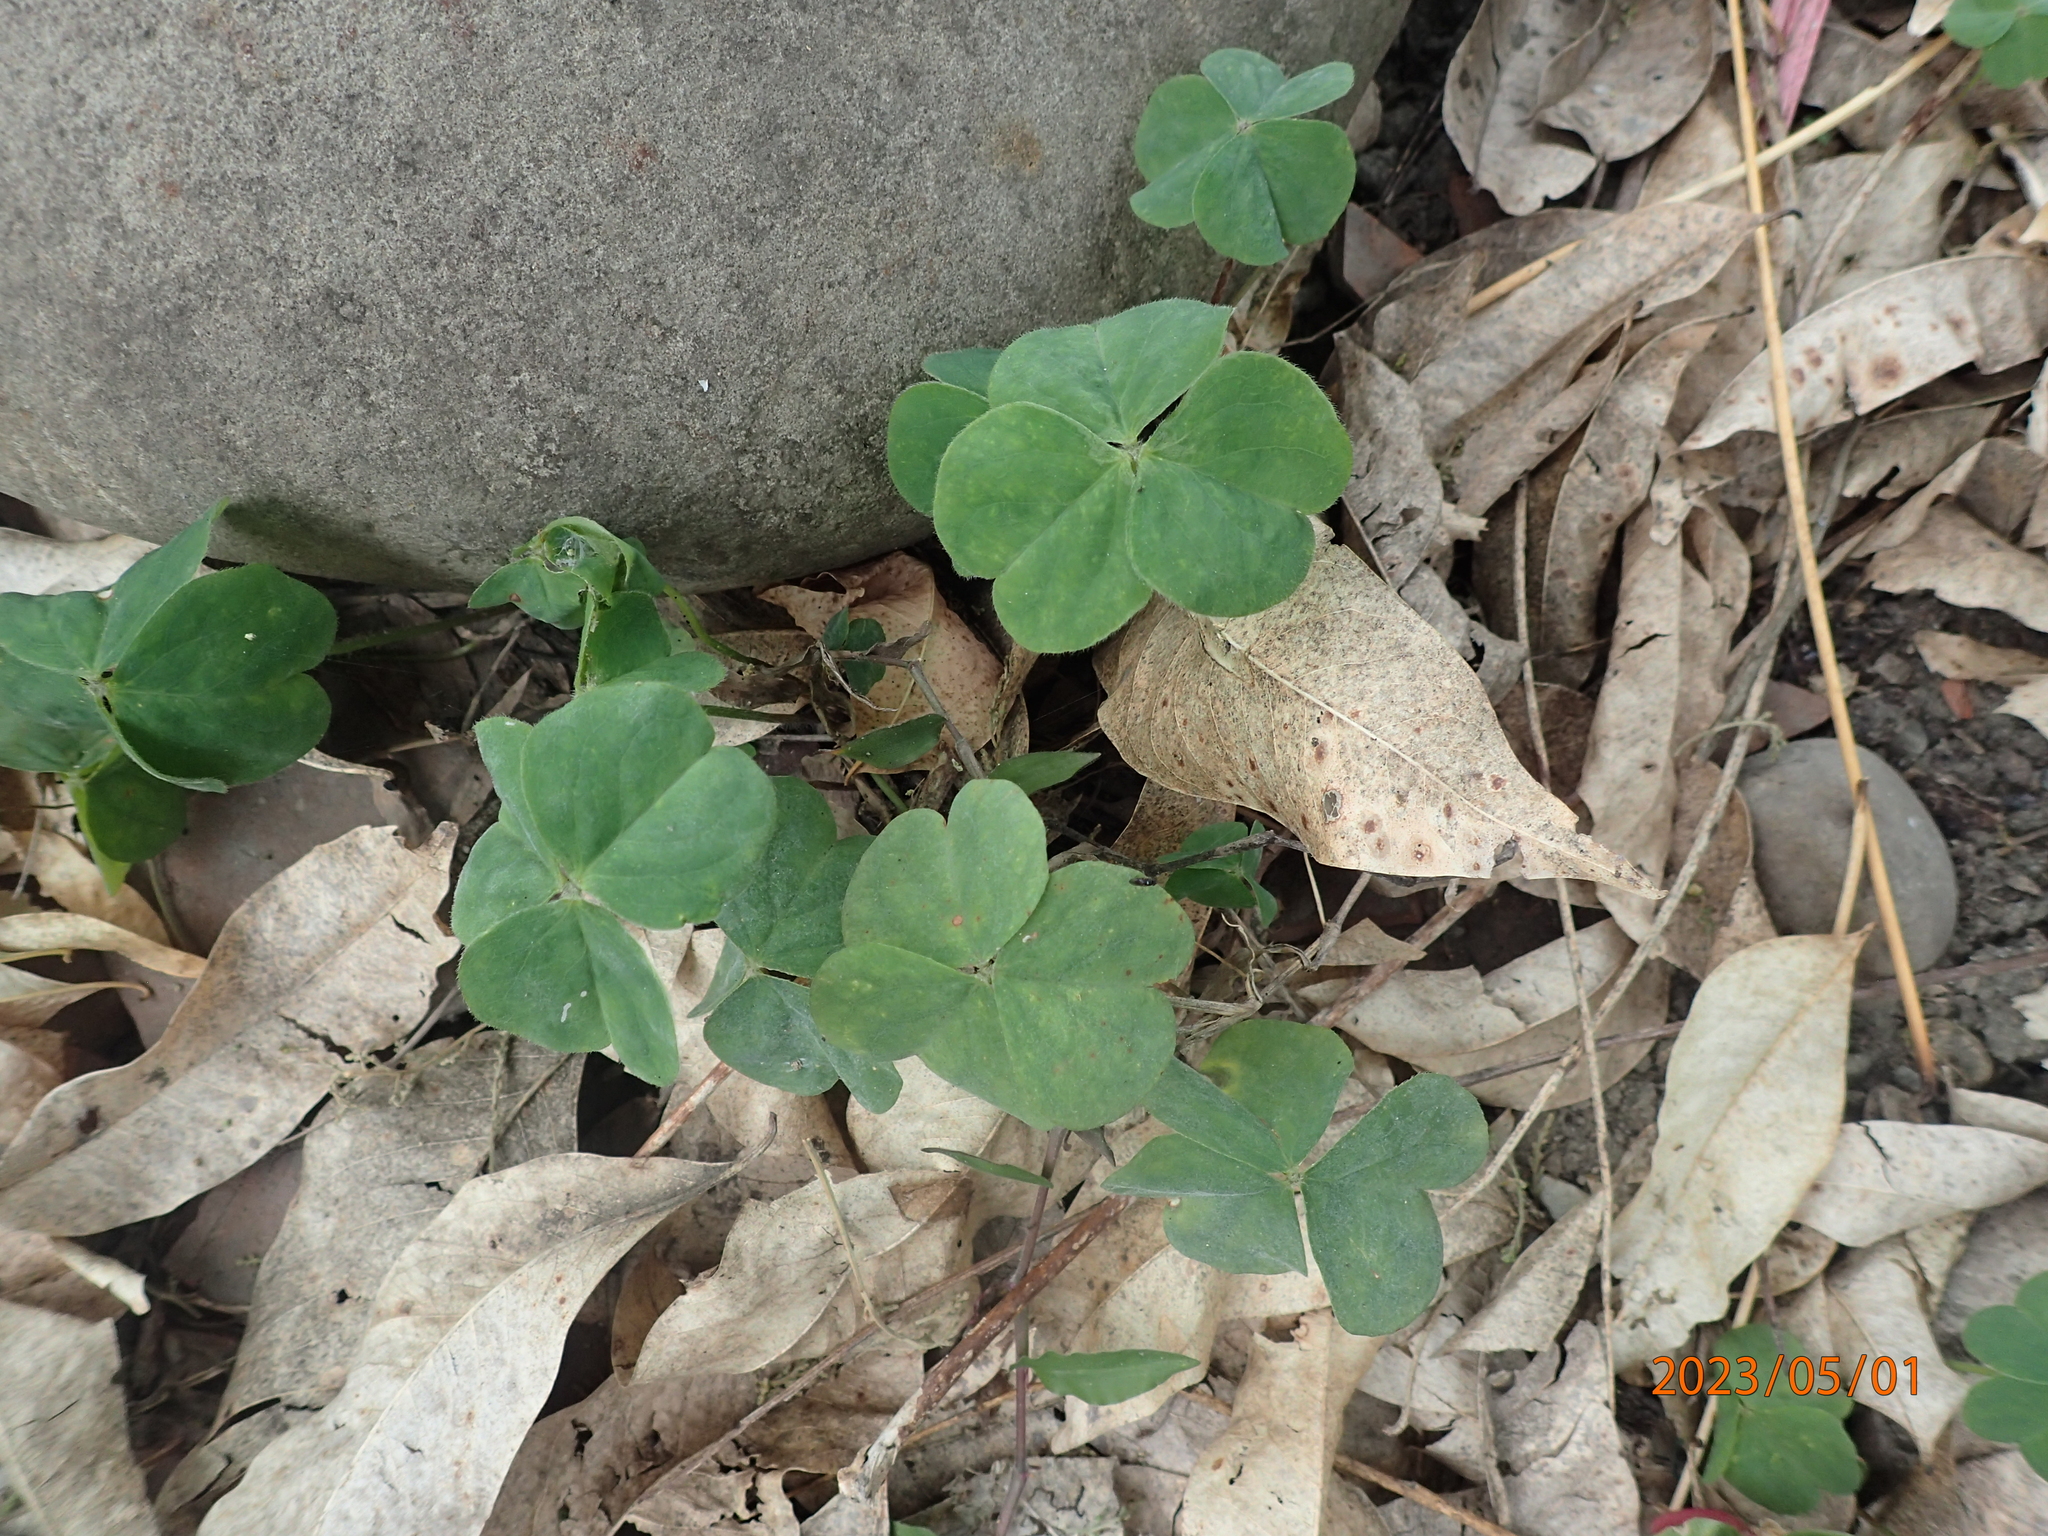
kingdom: Plantae
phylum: Tracheophyta
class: Magnoliopsida
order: Oxalidales
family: Oxalidaceae
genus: Oxalis
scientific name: Oxalis debilis
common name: Large-flowered pink-sorrel
